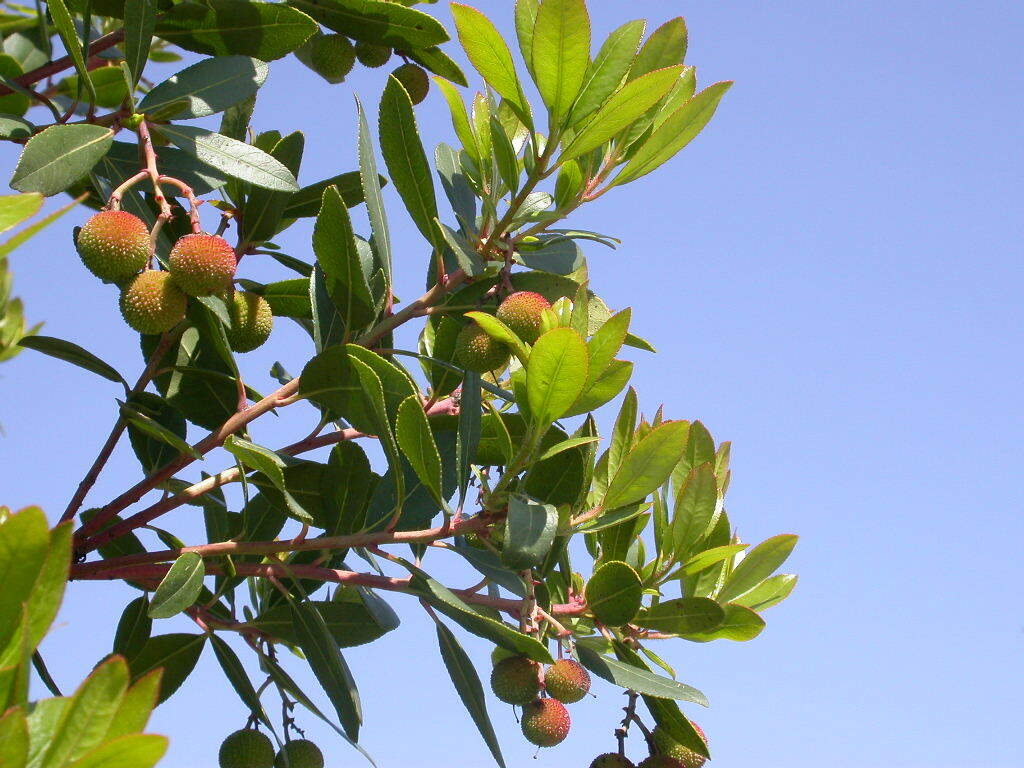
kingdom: Plantae
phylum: Tracheophyta
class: Magnoliopsida
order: Ericales
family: Ericaceae
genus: Arbutus
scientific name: Arbutus unedo
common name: Strawberry-tree
